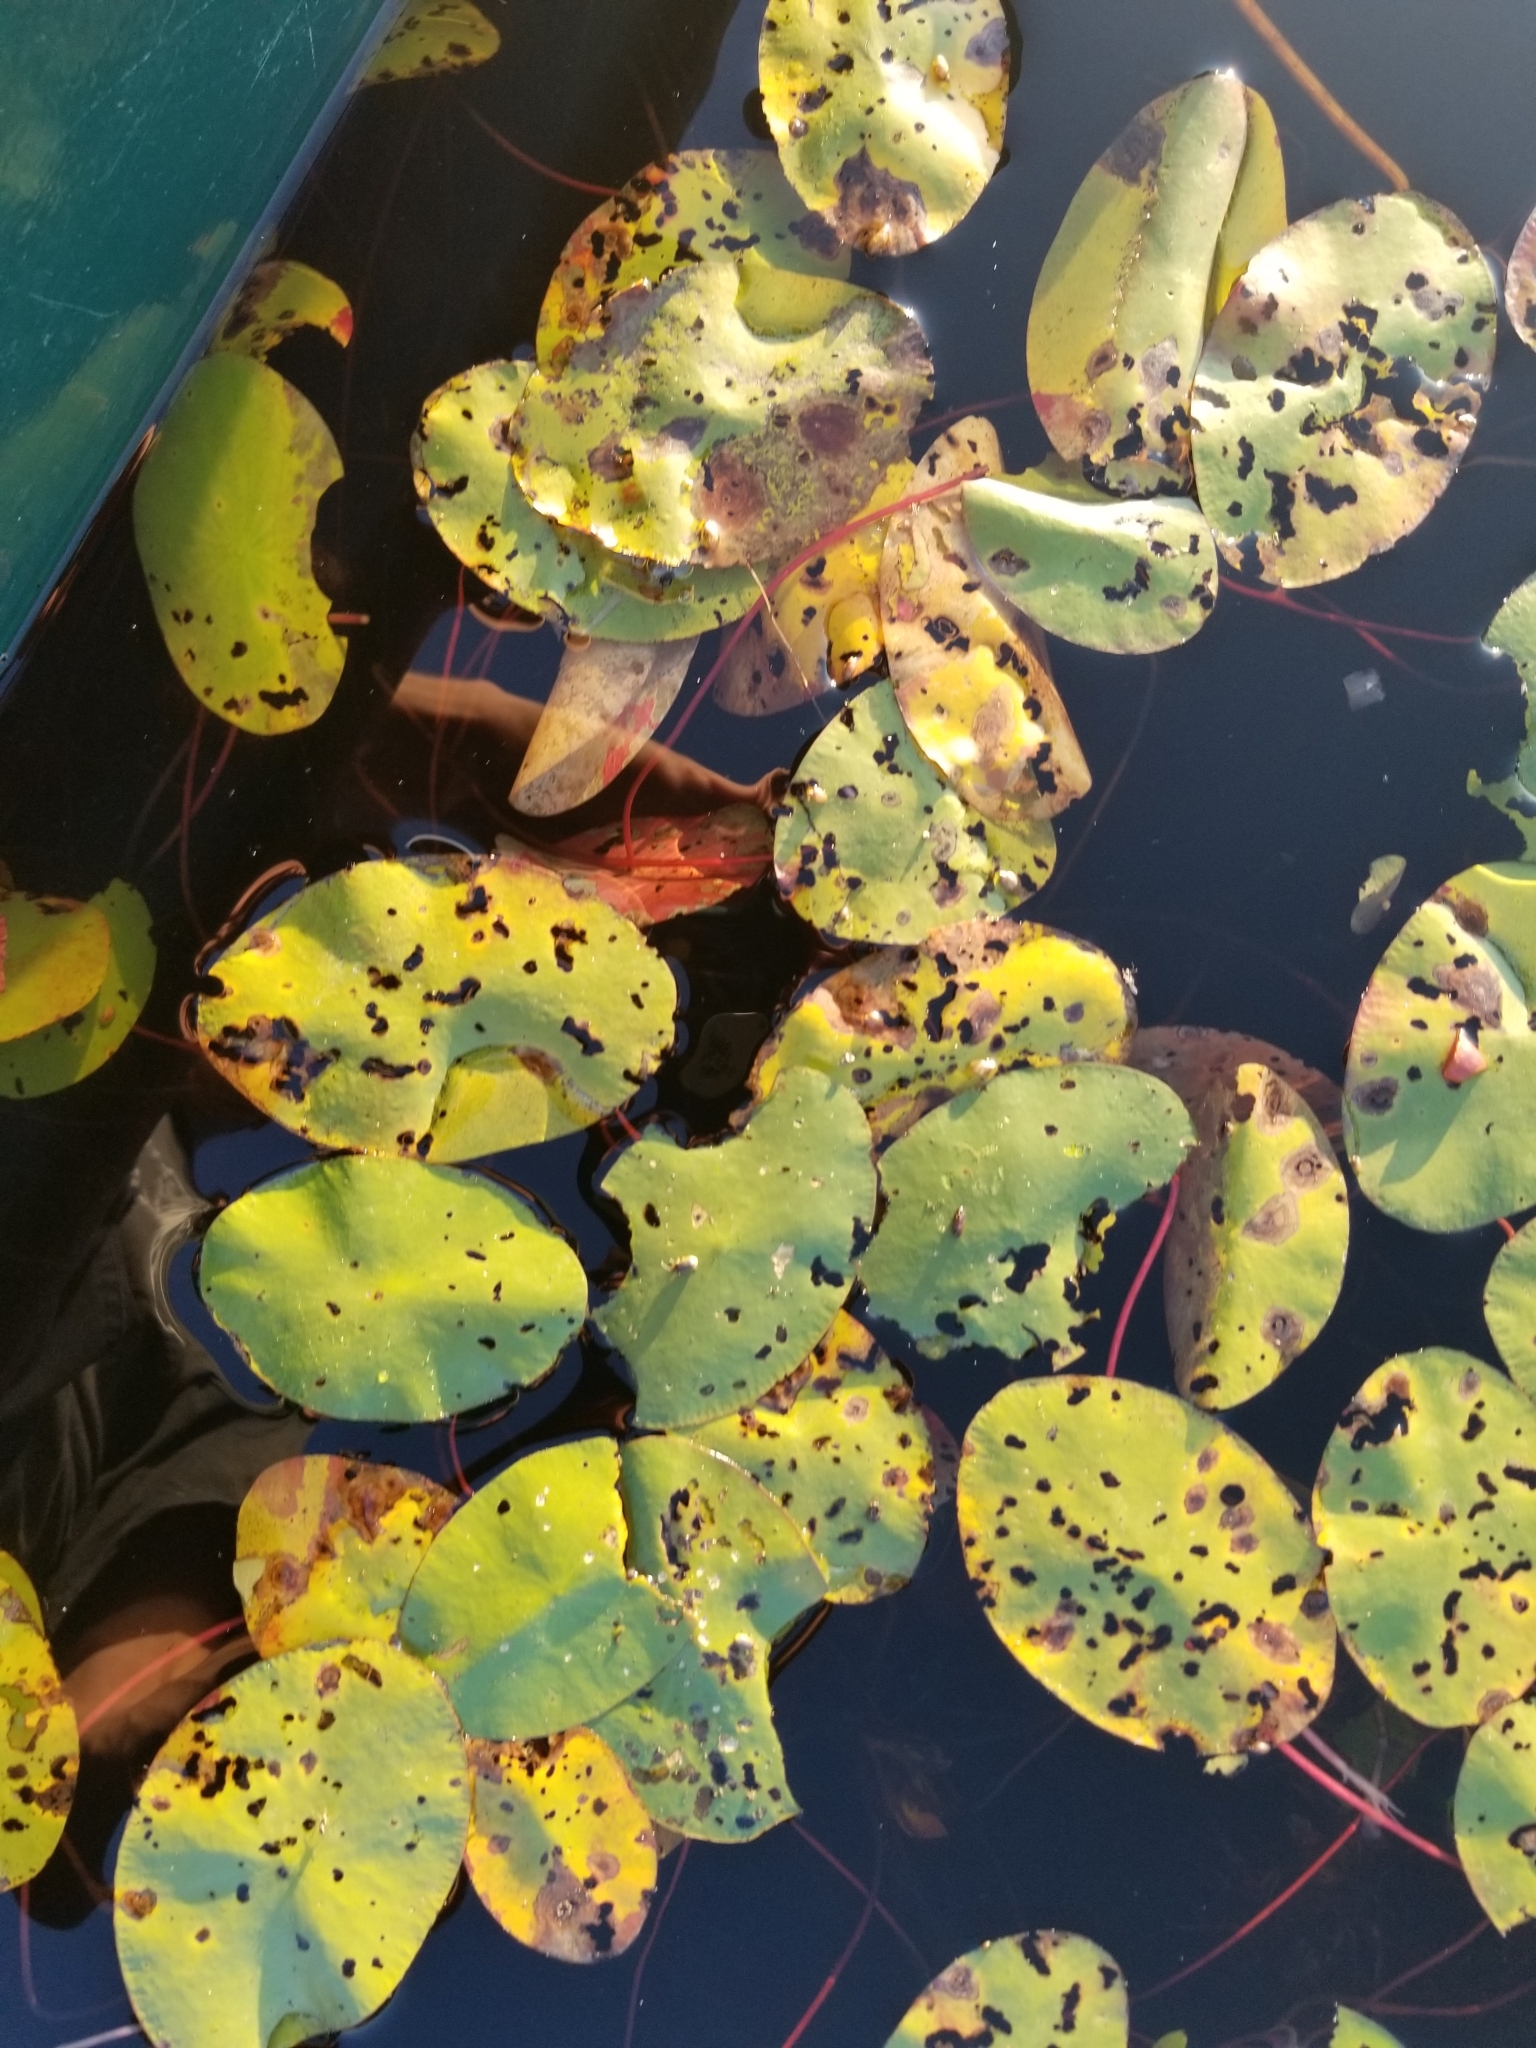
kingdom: Plantae
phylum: Tracheophyta
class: Magnoliopsida
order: Nymphaeales
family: Cabombaceae
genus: Brasenia
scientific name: Brasenia schreberi
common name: Water-shield
